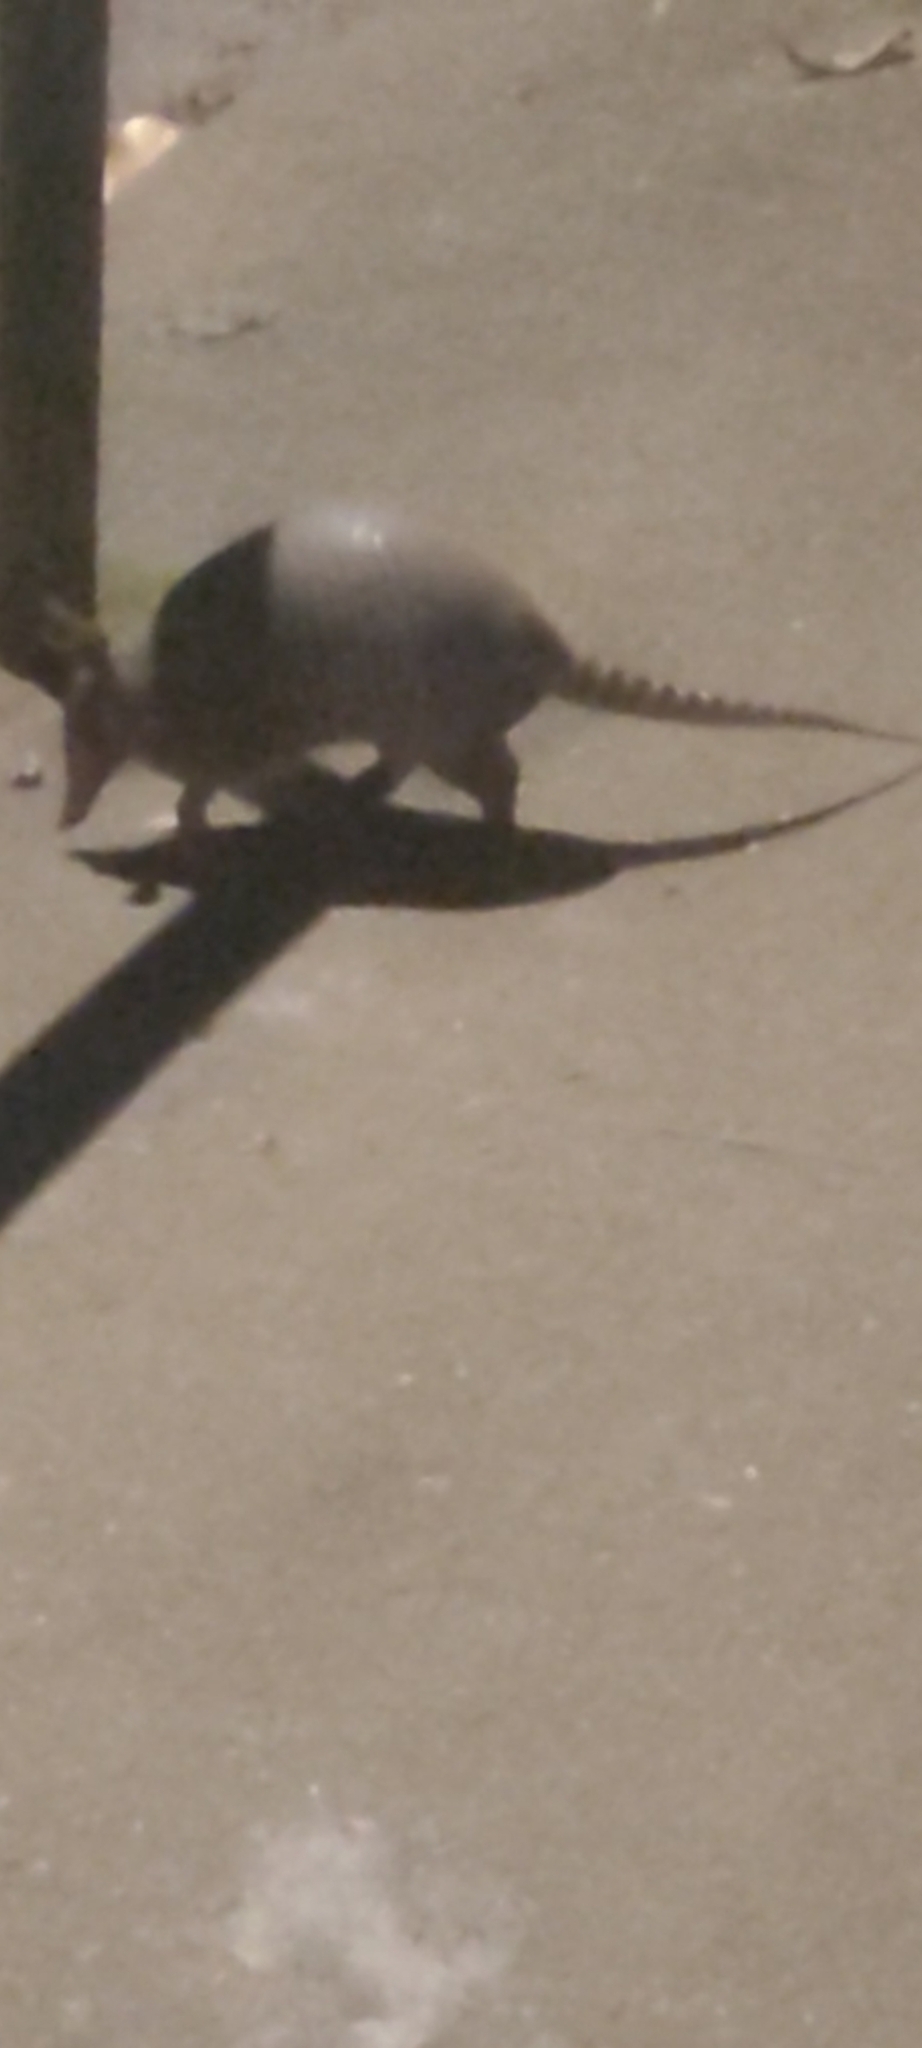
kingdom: Animalia
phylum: Chordata
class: Mammalia
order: Cingulata
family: Dasypodidae
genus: Dasypus
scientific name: Dasypus novemcinctus
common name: Nine-banded armadillo
